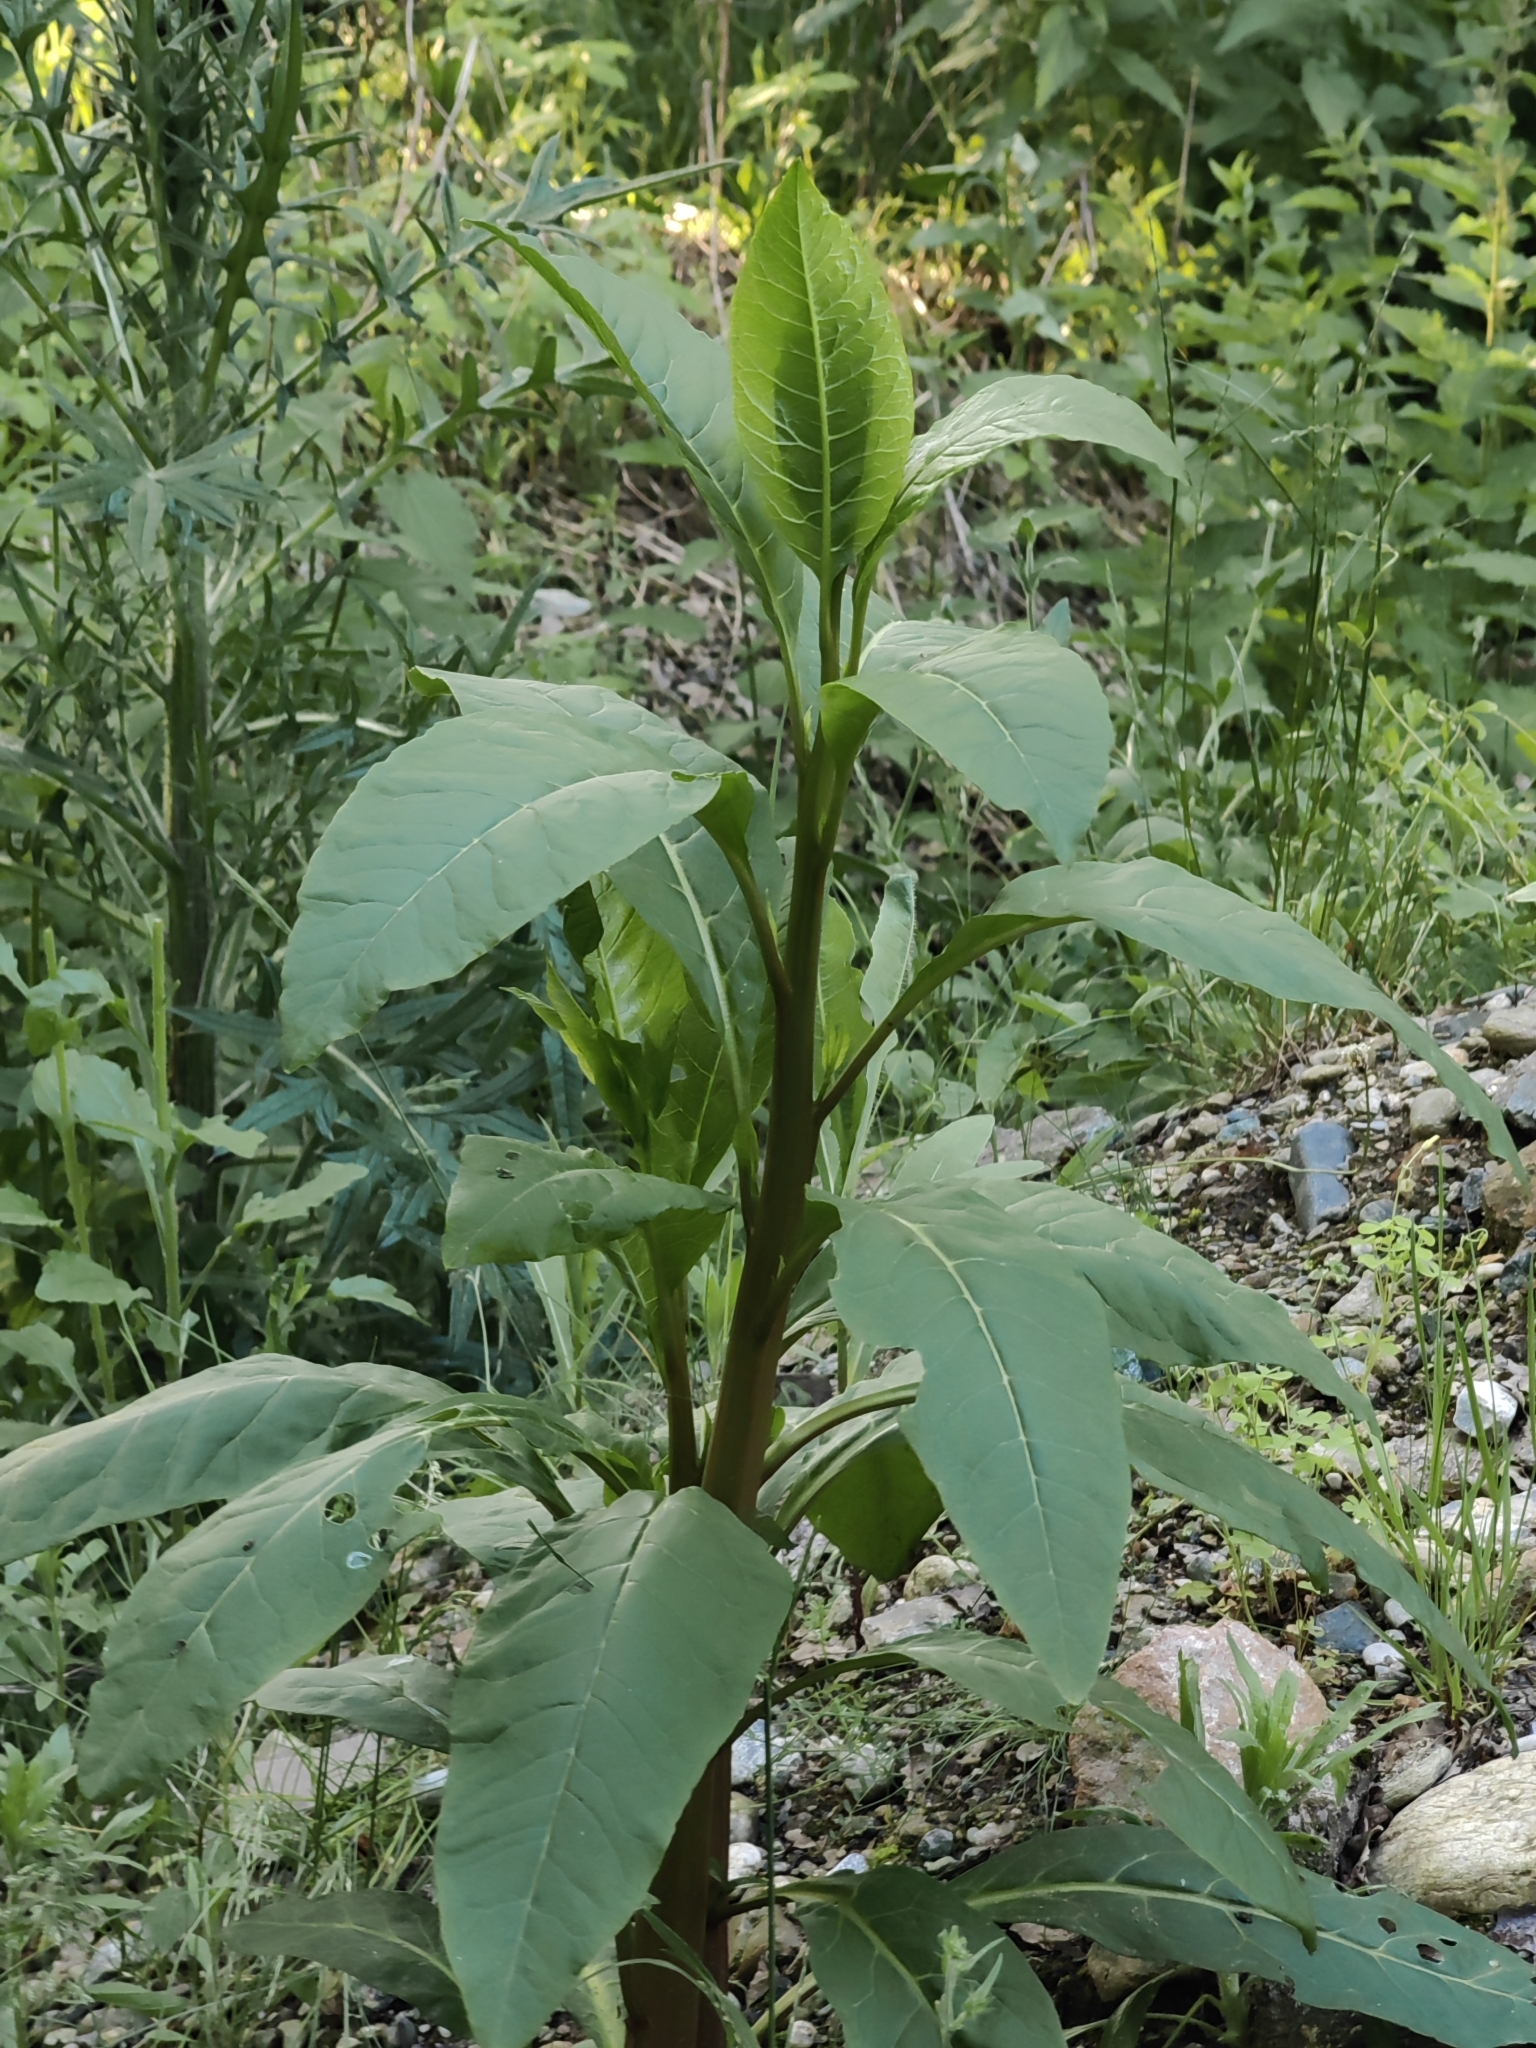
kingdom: Plantae
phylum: Tracheophyta
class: Magnoliopsida
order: Caryophyllales
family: Phytolaccaceae
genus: Phytolacca
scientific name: Phytolacca americana
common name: American pokeweed
